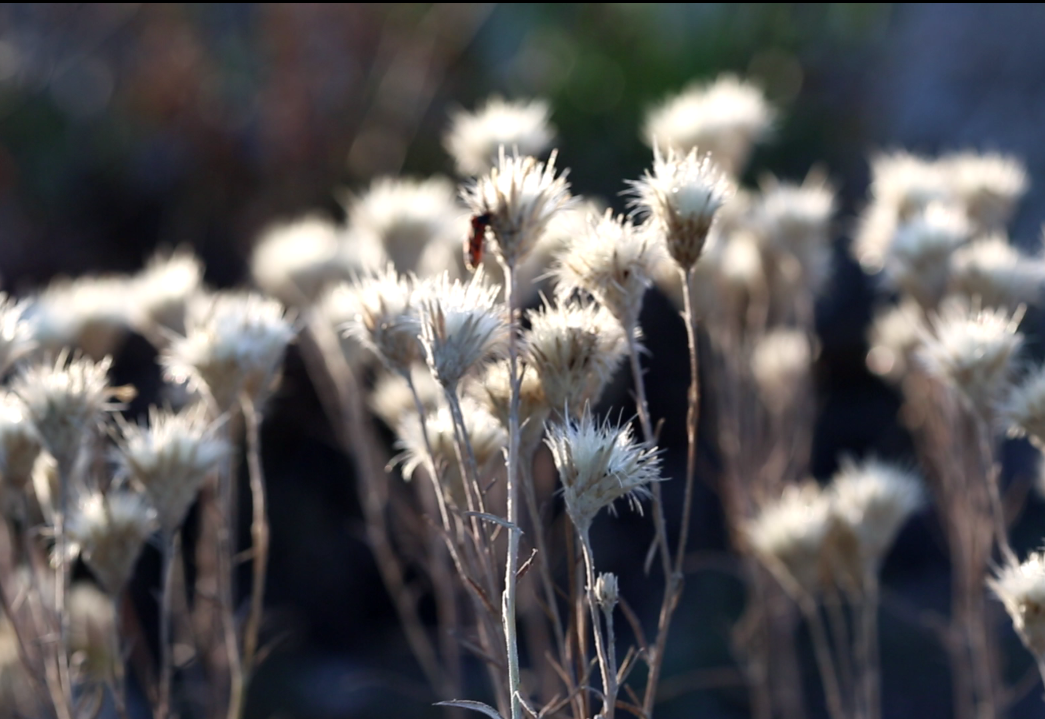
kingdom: Plantae
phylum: Tracheophyta
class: Magnoliopsida
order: Asterales
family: Asteraceae
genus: Jurinea
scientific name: Jurinea stoechadifolia
